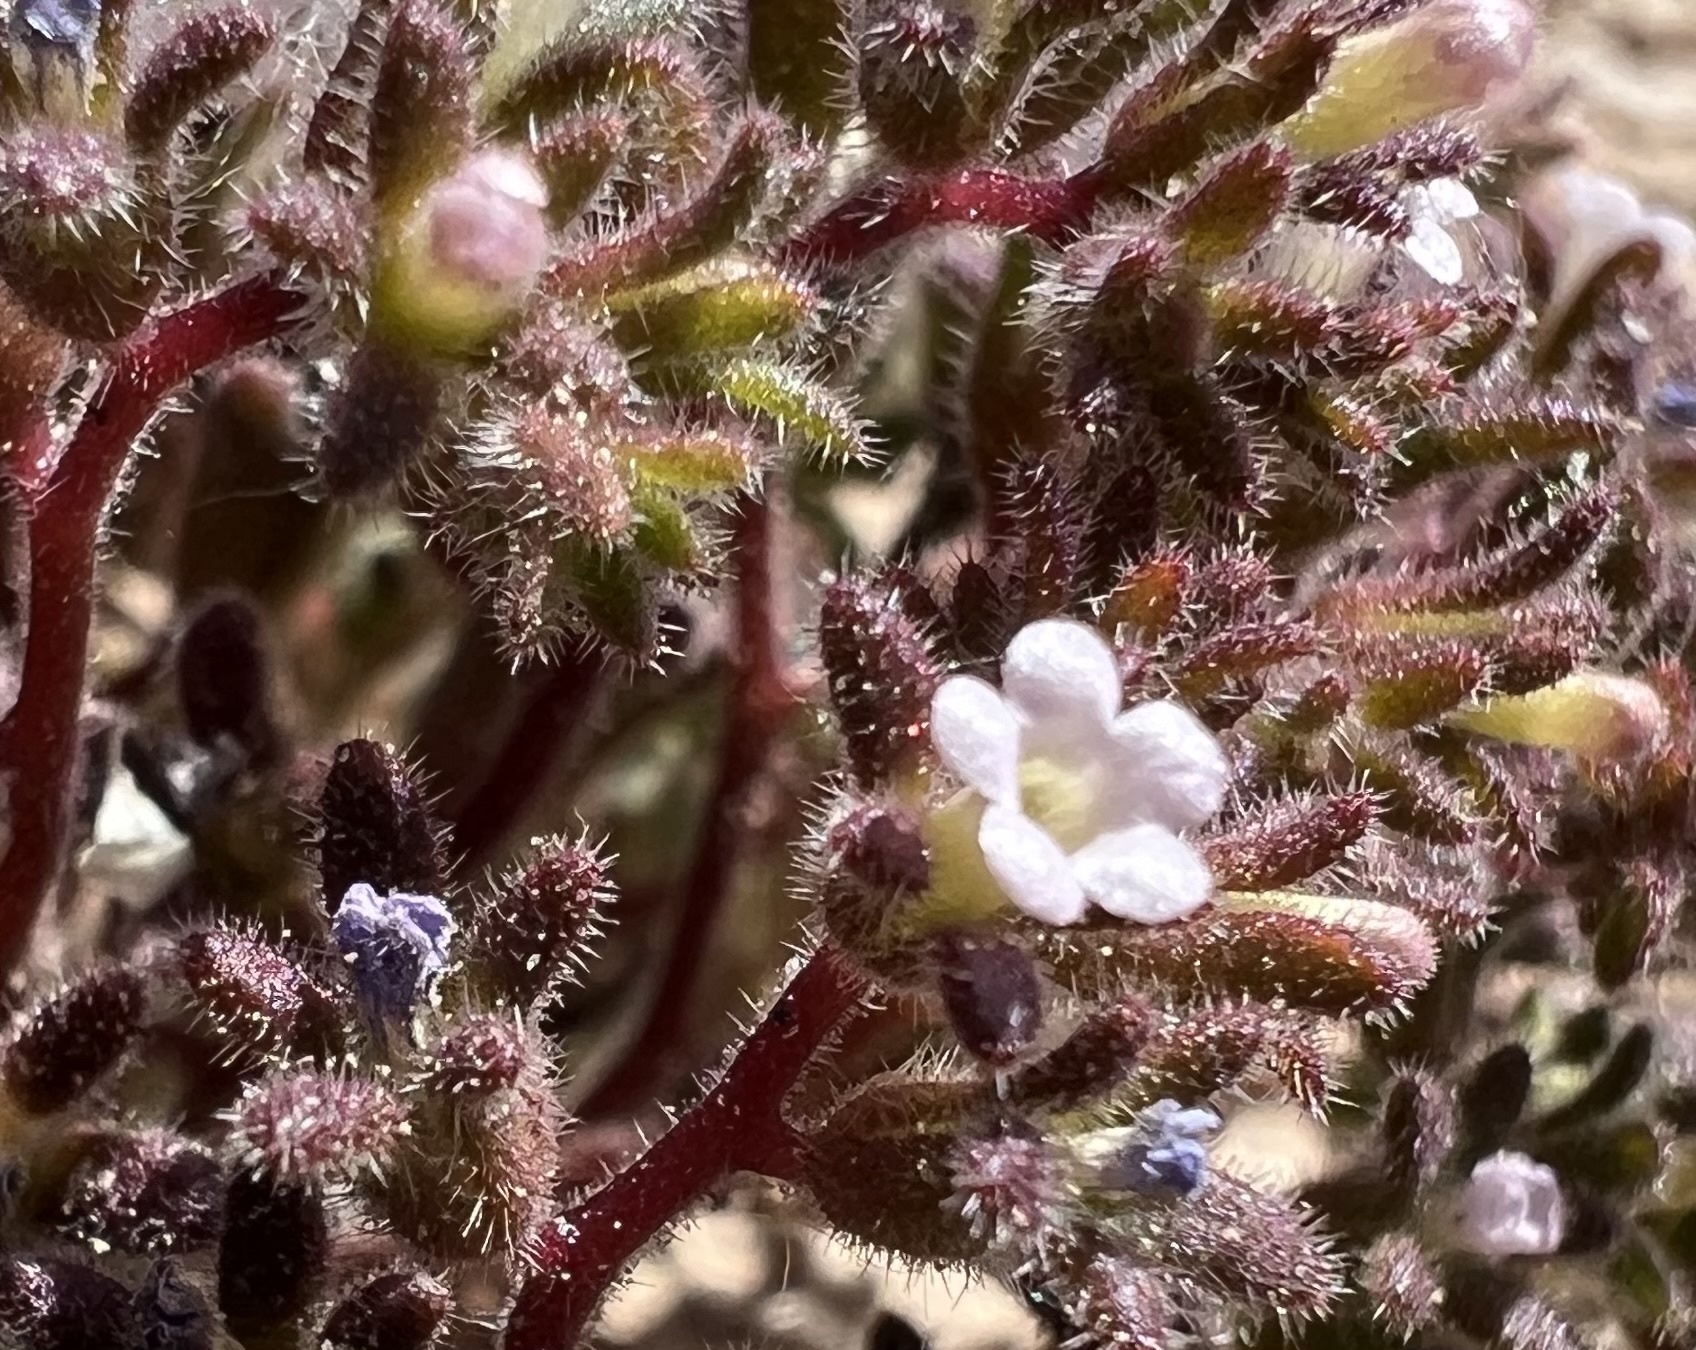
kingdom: Plantae
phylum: Tracheophyta
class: Magnoliopsida
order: Boraginales
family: Hydrophyllaceae
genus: Phacelia
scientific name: Phacelia saxicola
